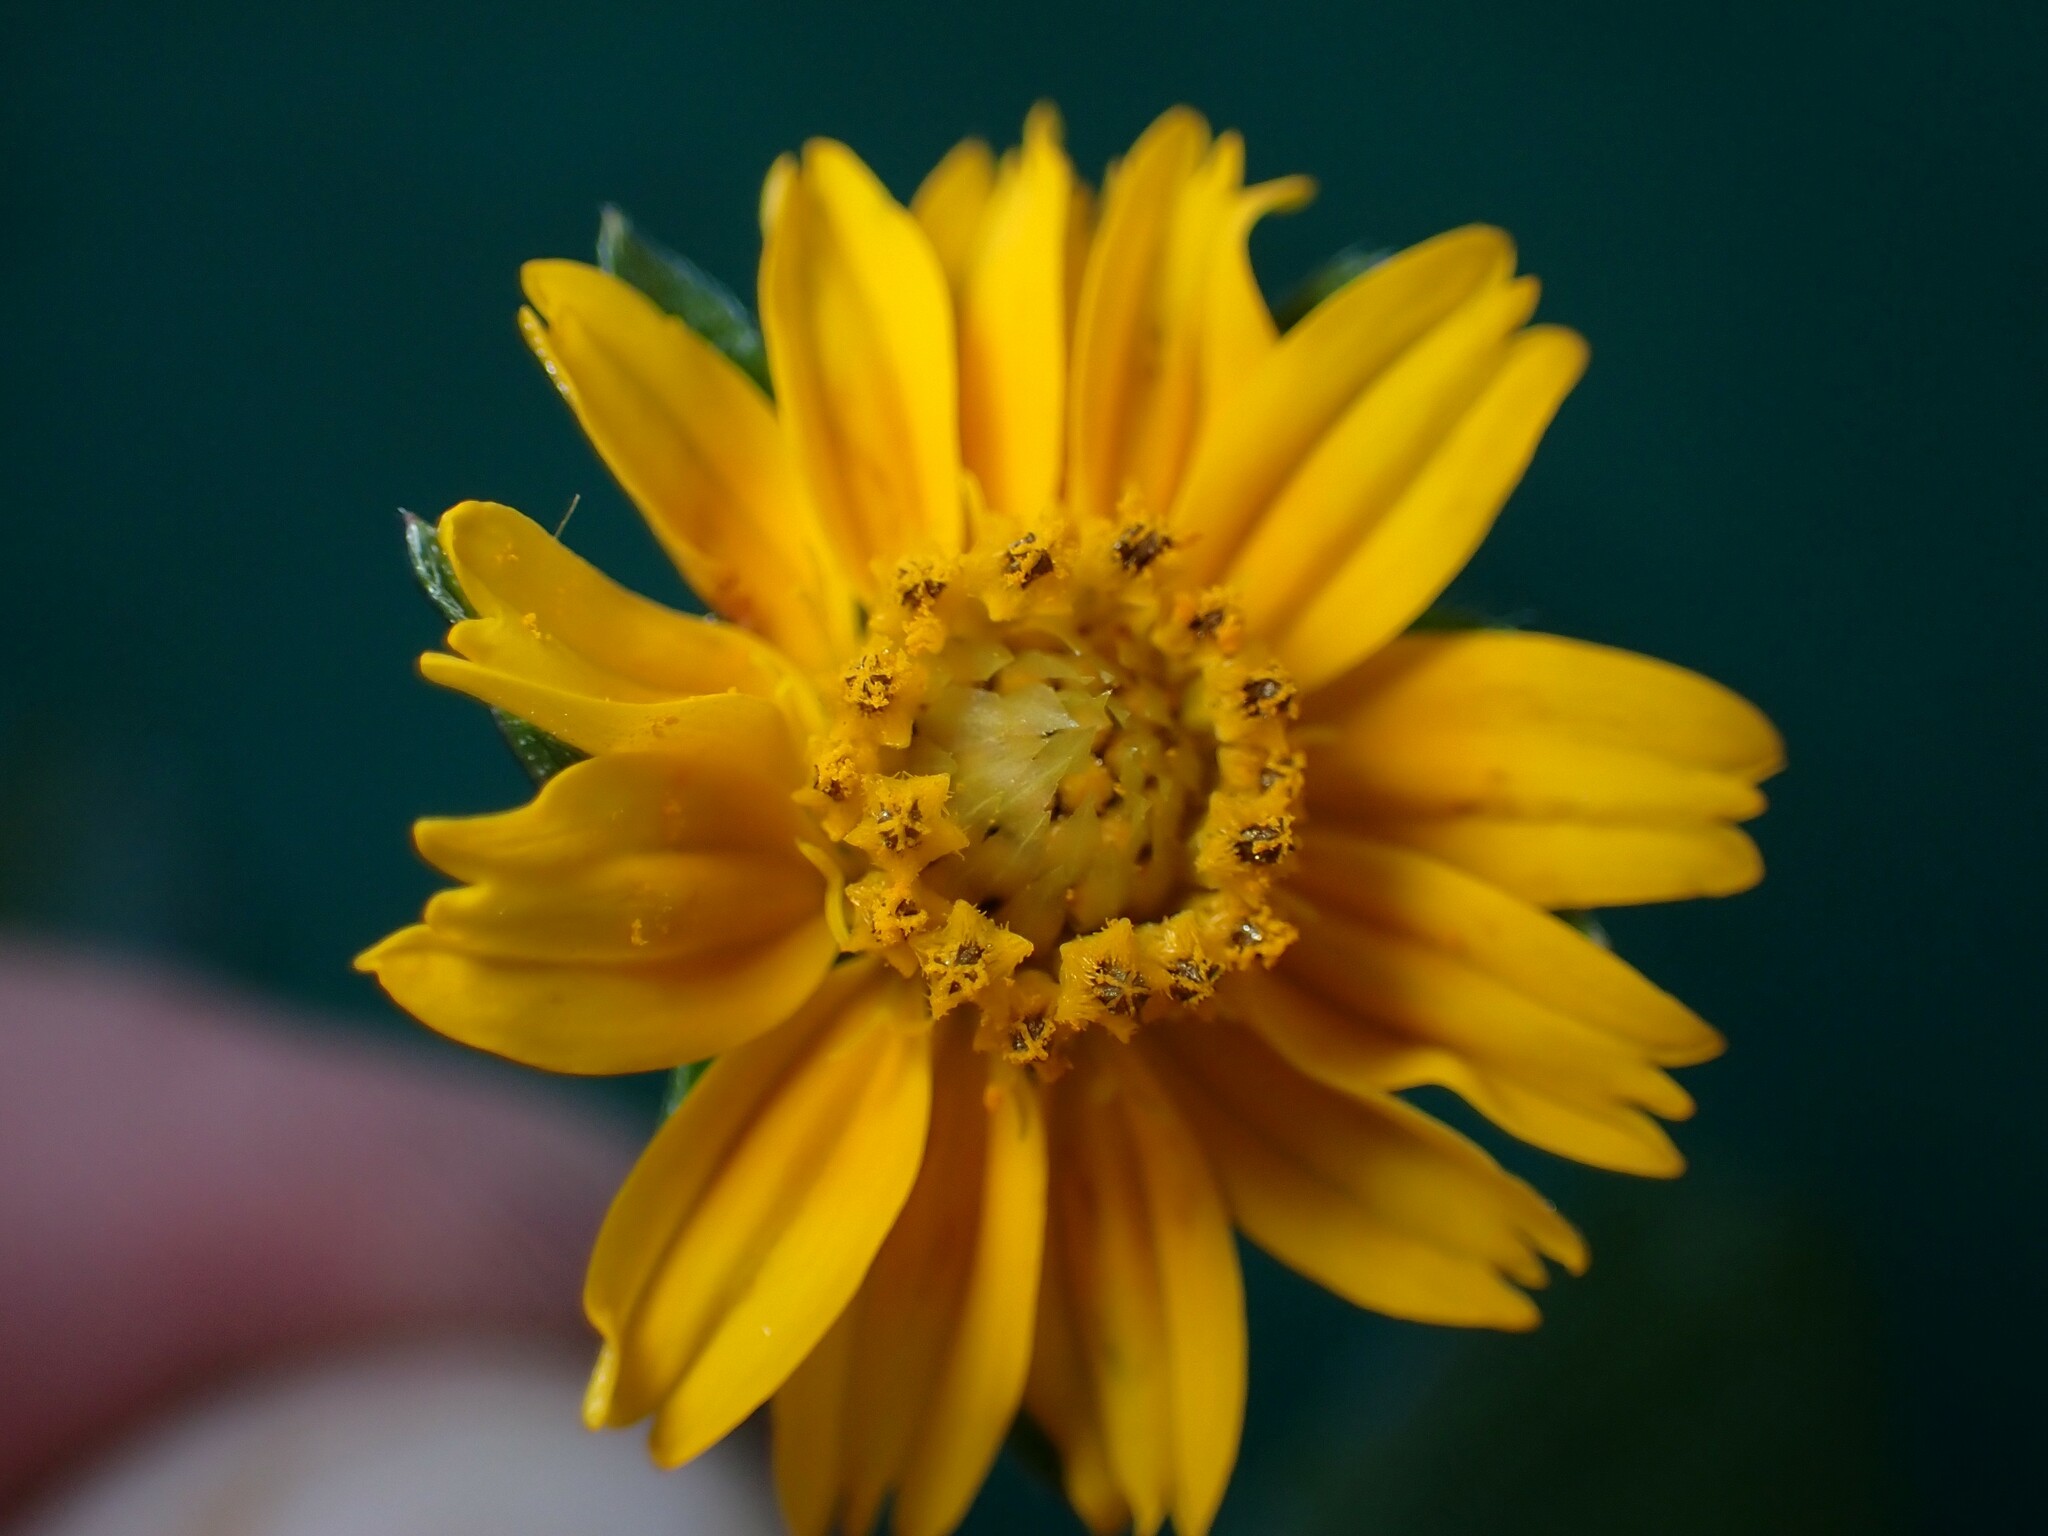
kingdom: Plantae
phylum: Tracheophyta
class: Magnoliopsida
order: Asterales
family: Asteraceae
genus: Sphagneticola
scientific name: Sphagneticola trilobata
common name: Bay biscayne creeping-oxeye
